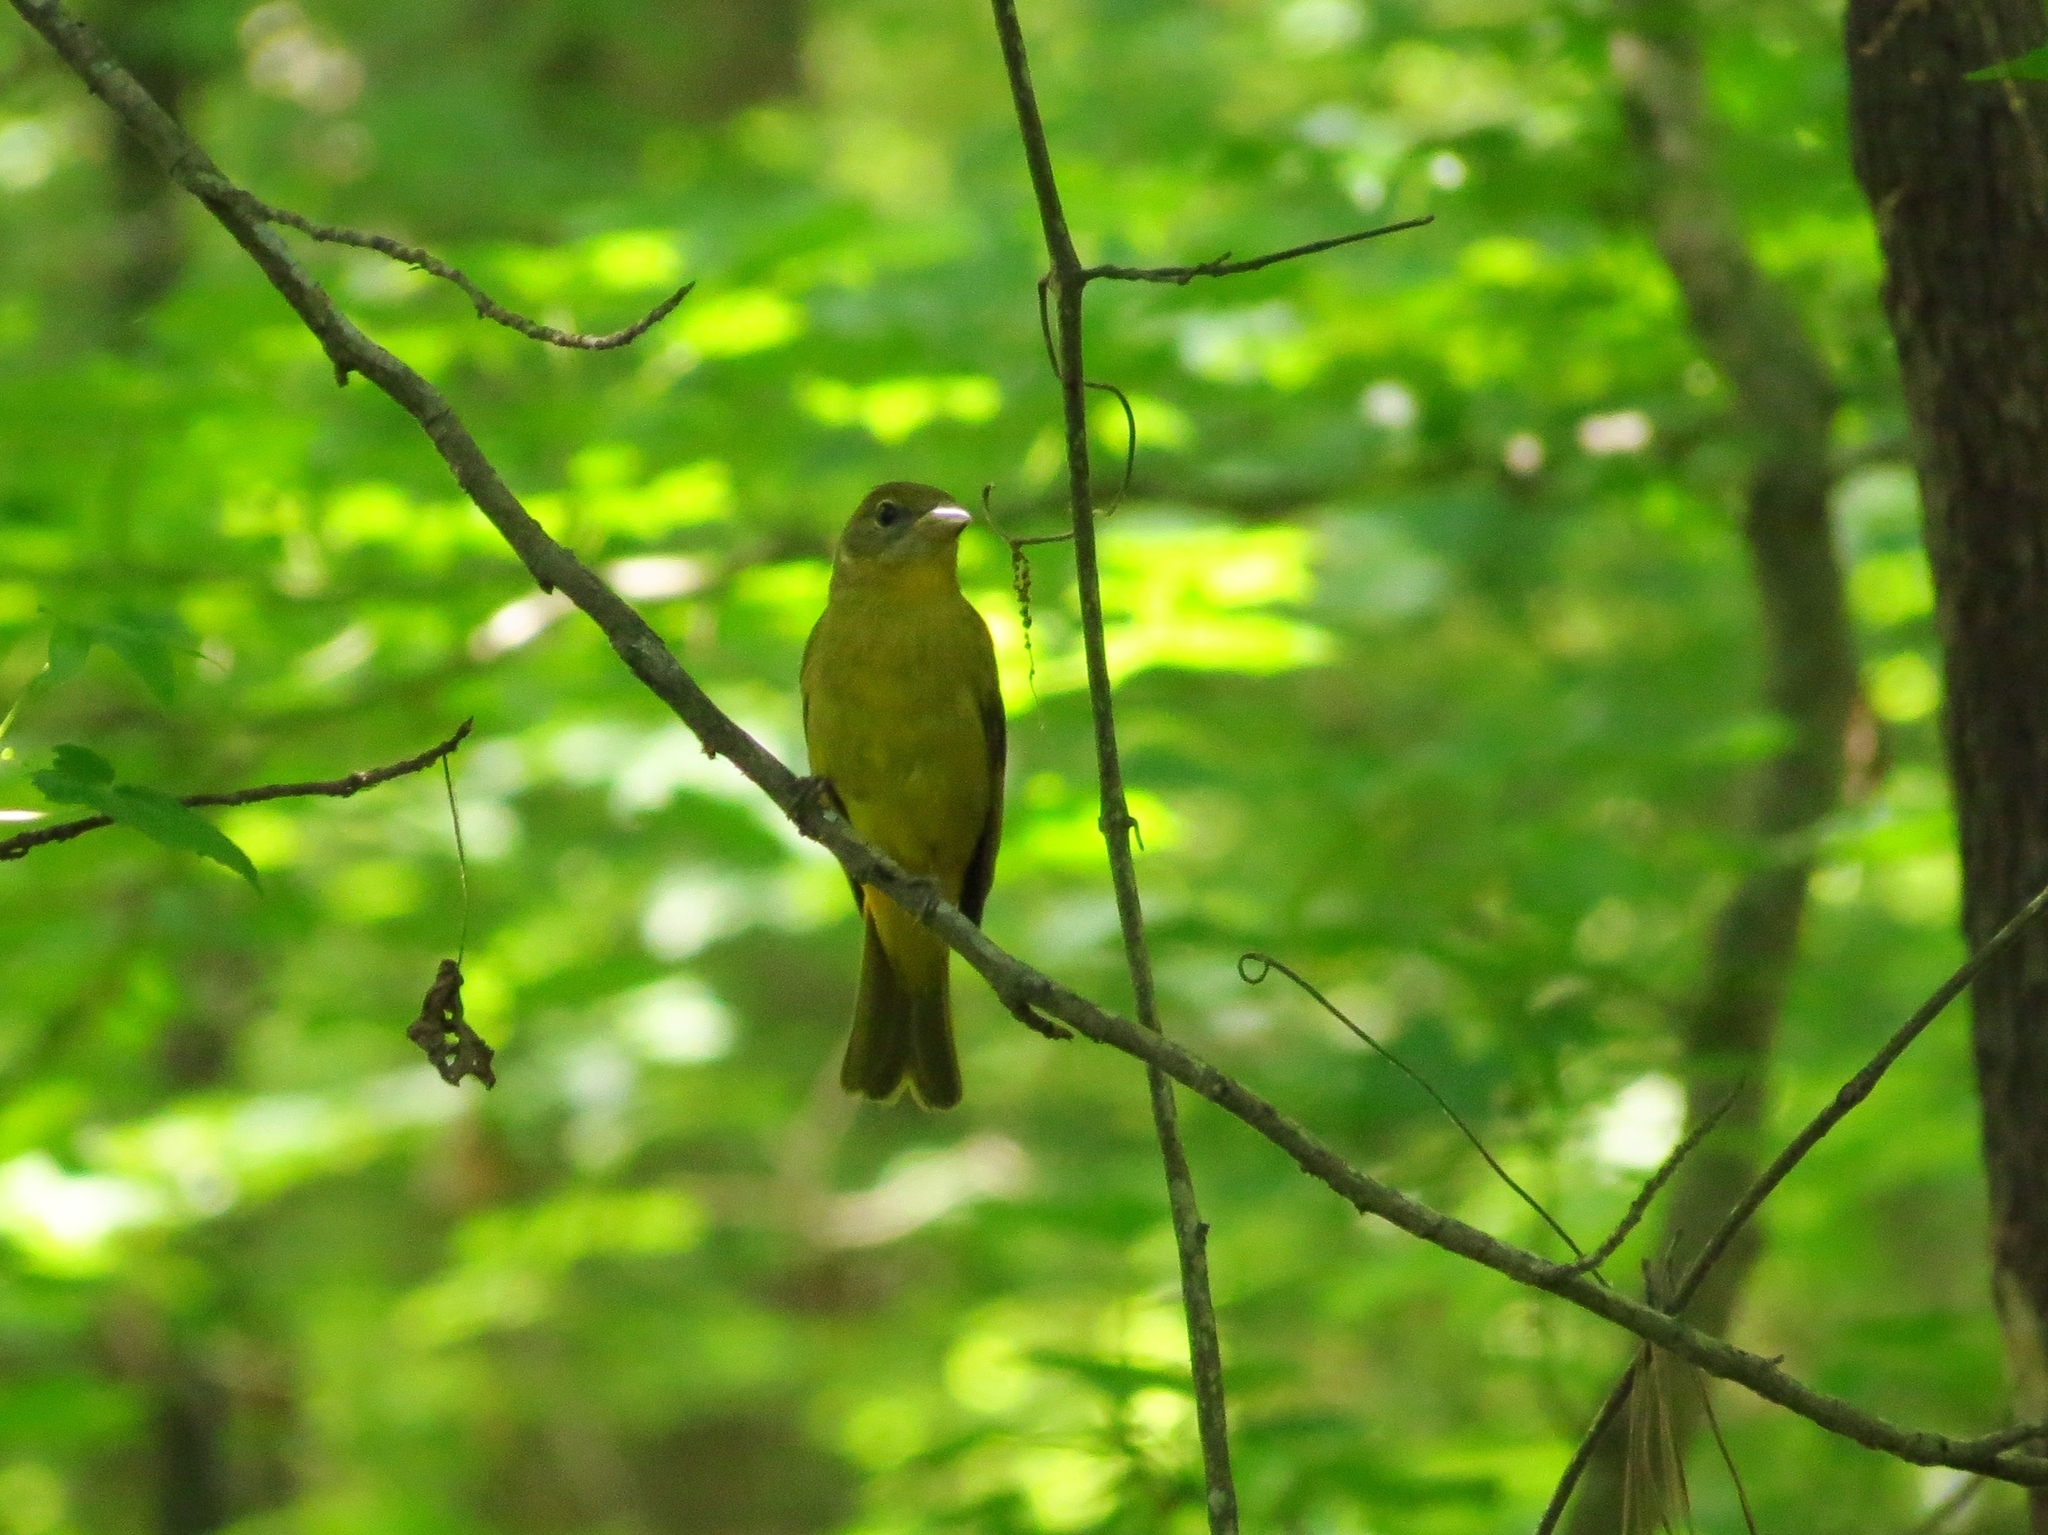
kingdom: Animalia
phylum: Chordata
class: Aves
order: Passeriformes
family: Cardinalidae
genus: Piranga
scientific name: Piranga rubra
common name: Summer tanager
